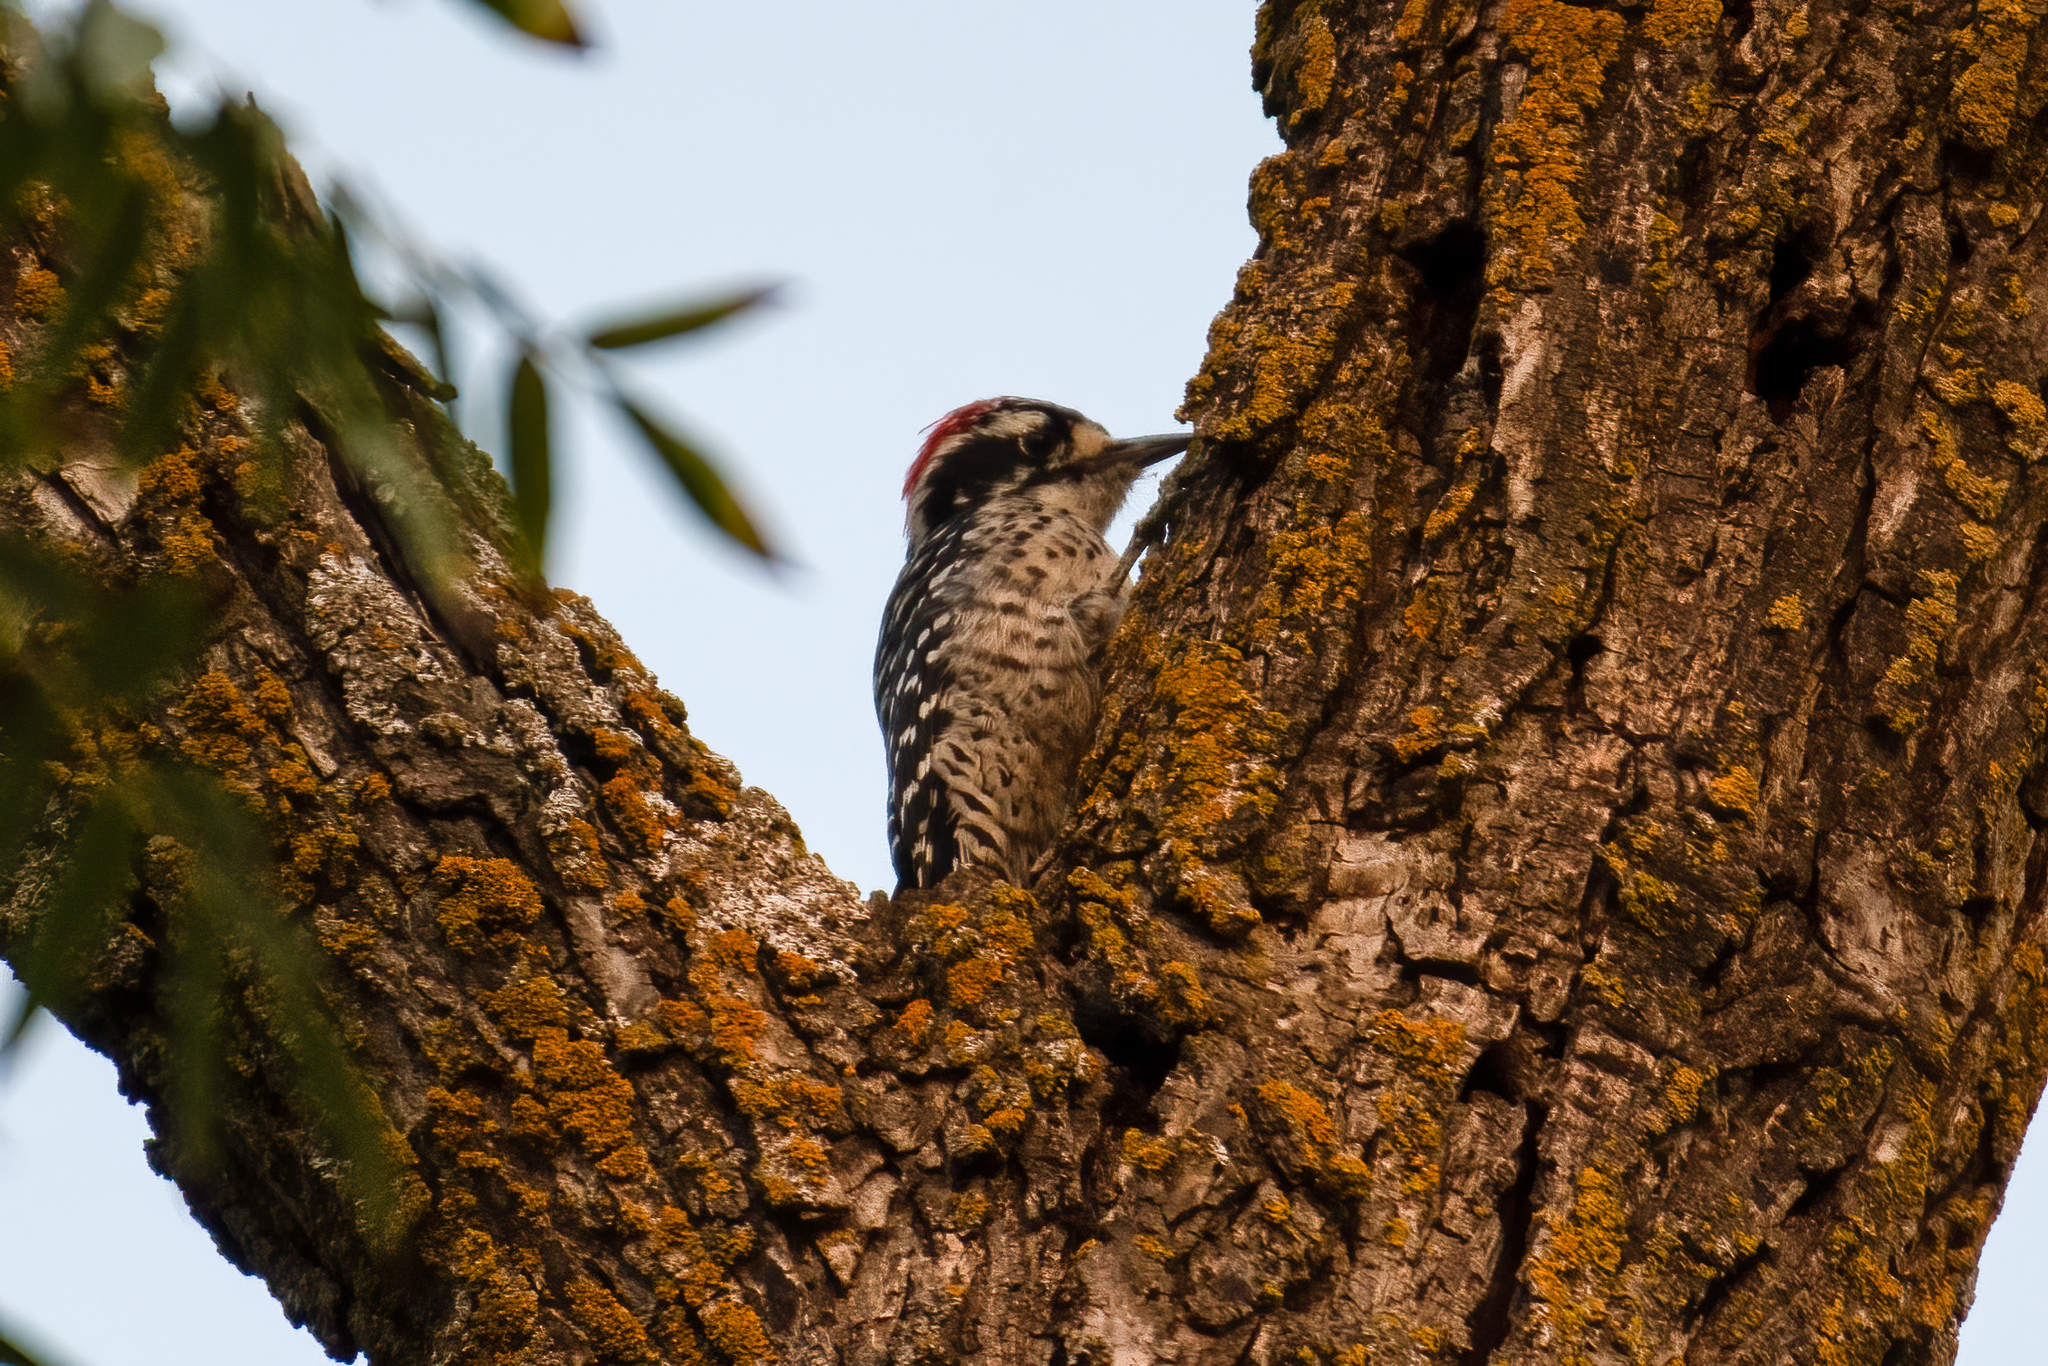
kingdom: Animalia
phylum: Chordata
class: Aves
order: Piciformes
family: Picidae
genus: Dryobates
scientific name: Dryobates nuttallii
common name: Nuttall's woodpecker
